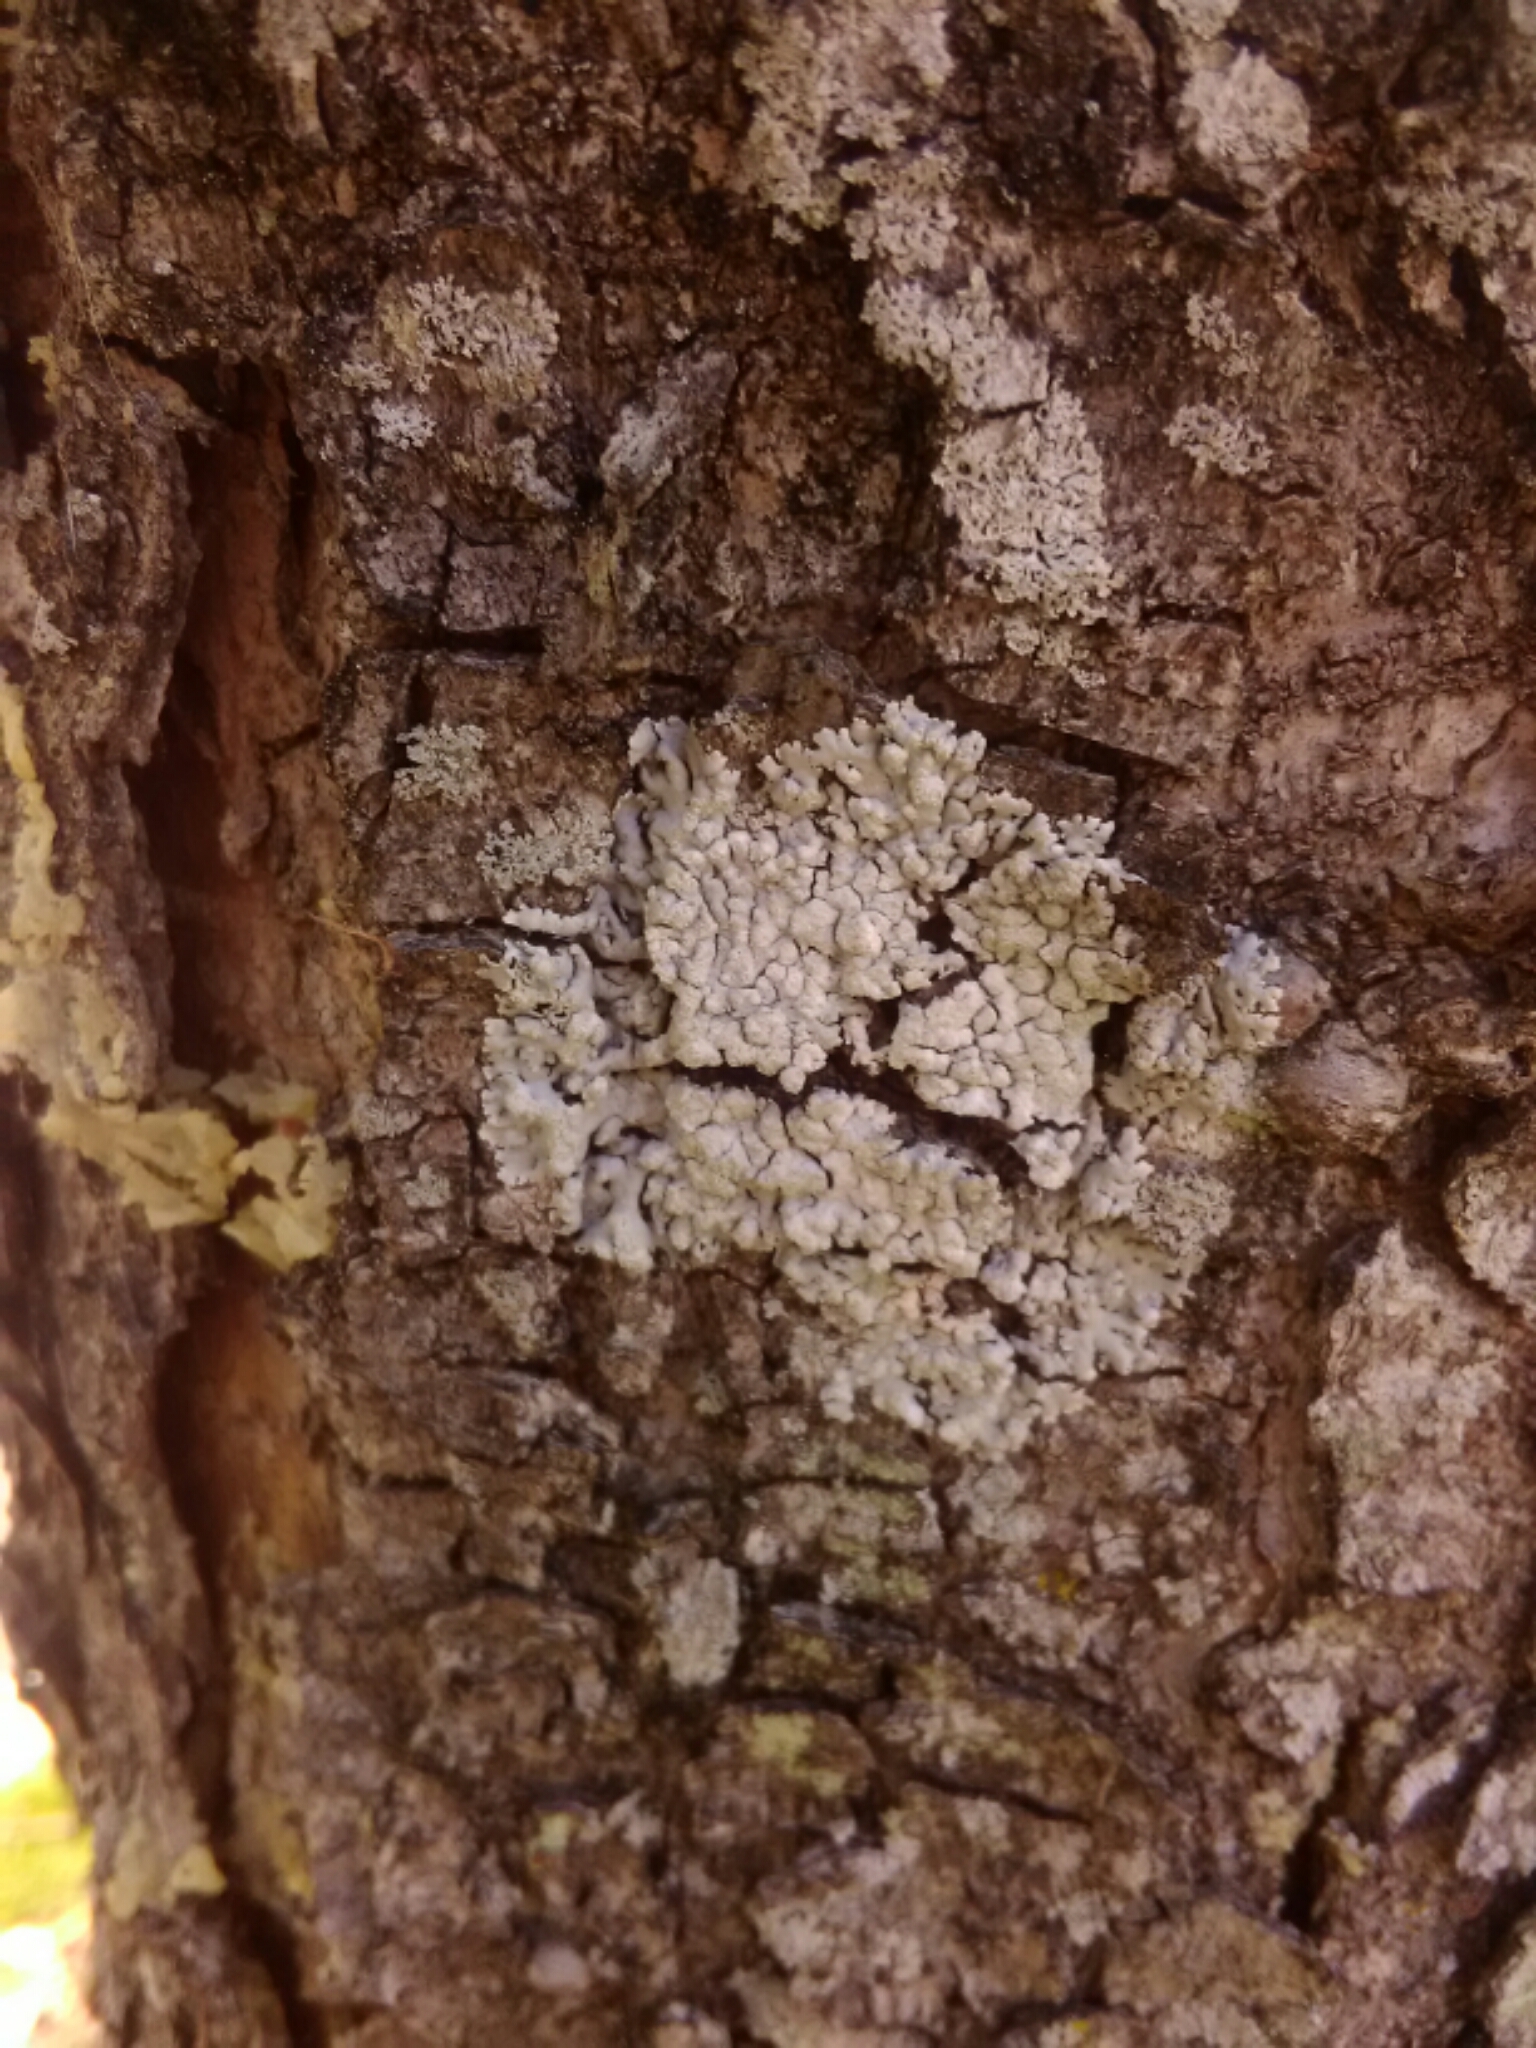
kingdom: Fungi
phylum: Ascomycota
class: Lecanoromycetes
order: Caliciales
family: Physciaceae
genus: Physcia
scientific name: Physcia americana
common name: American rosette lichen
